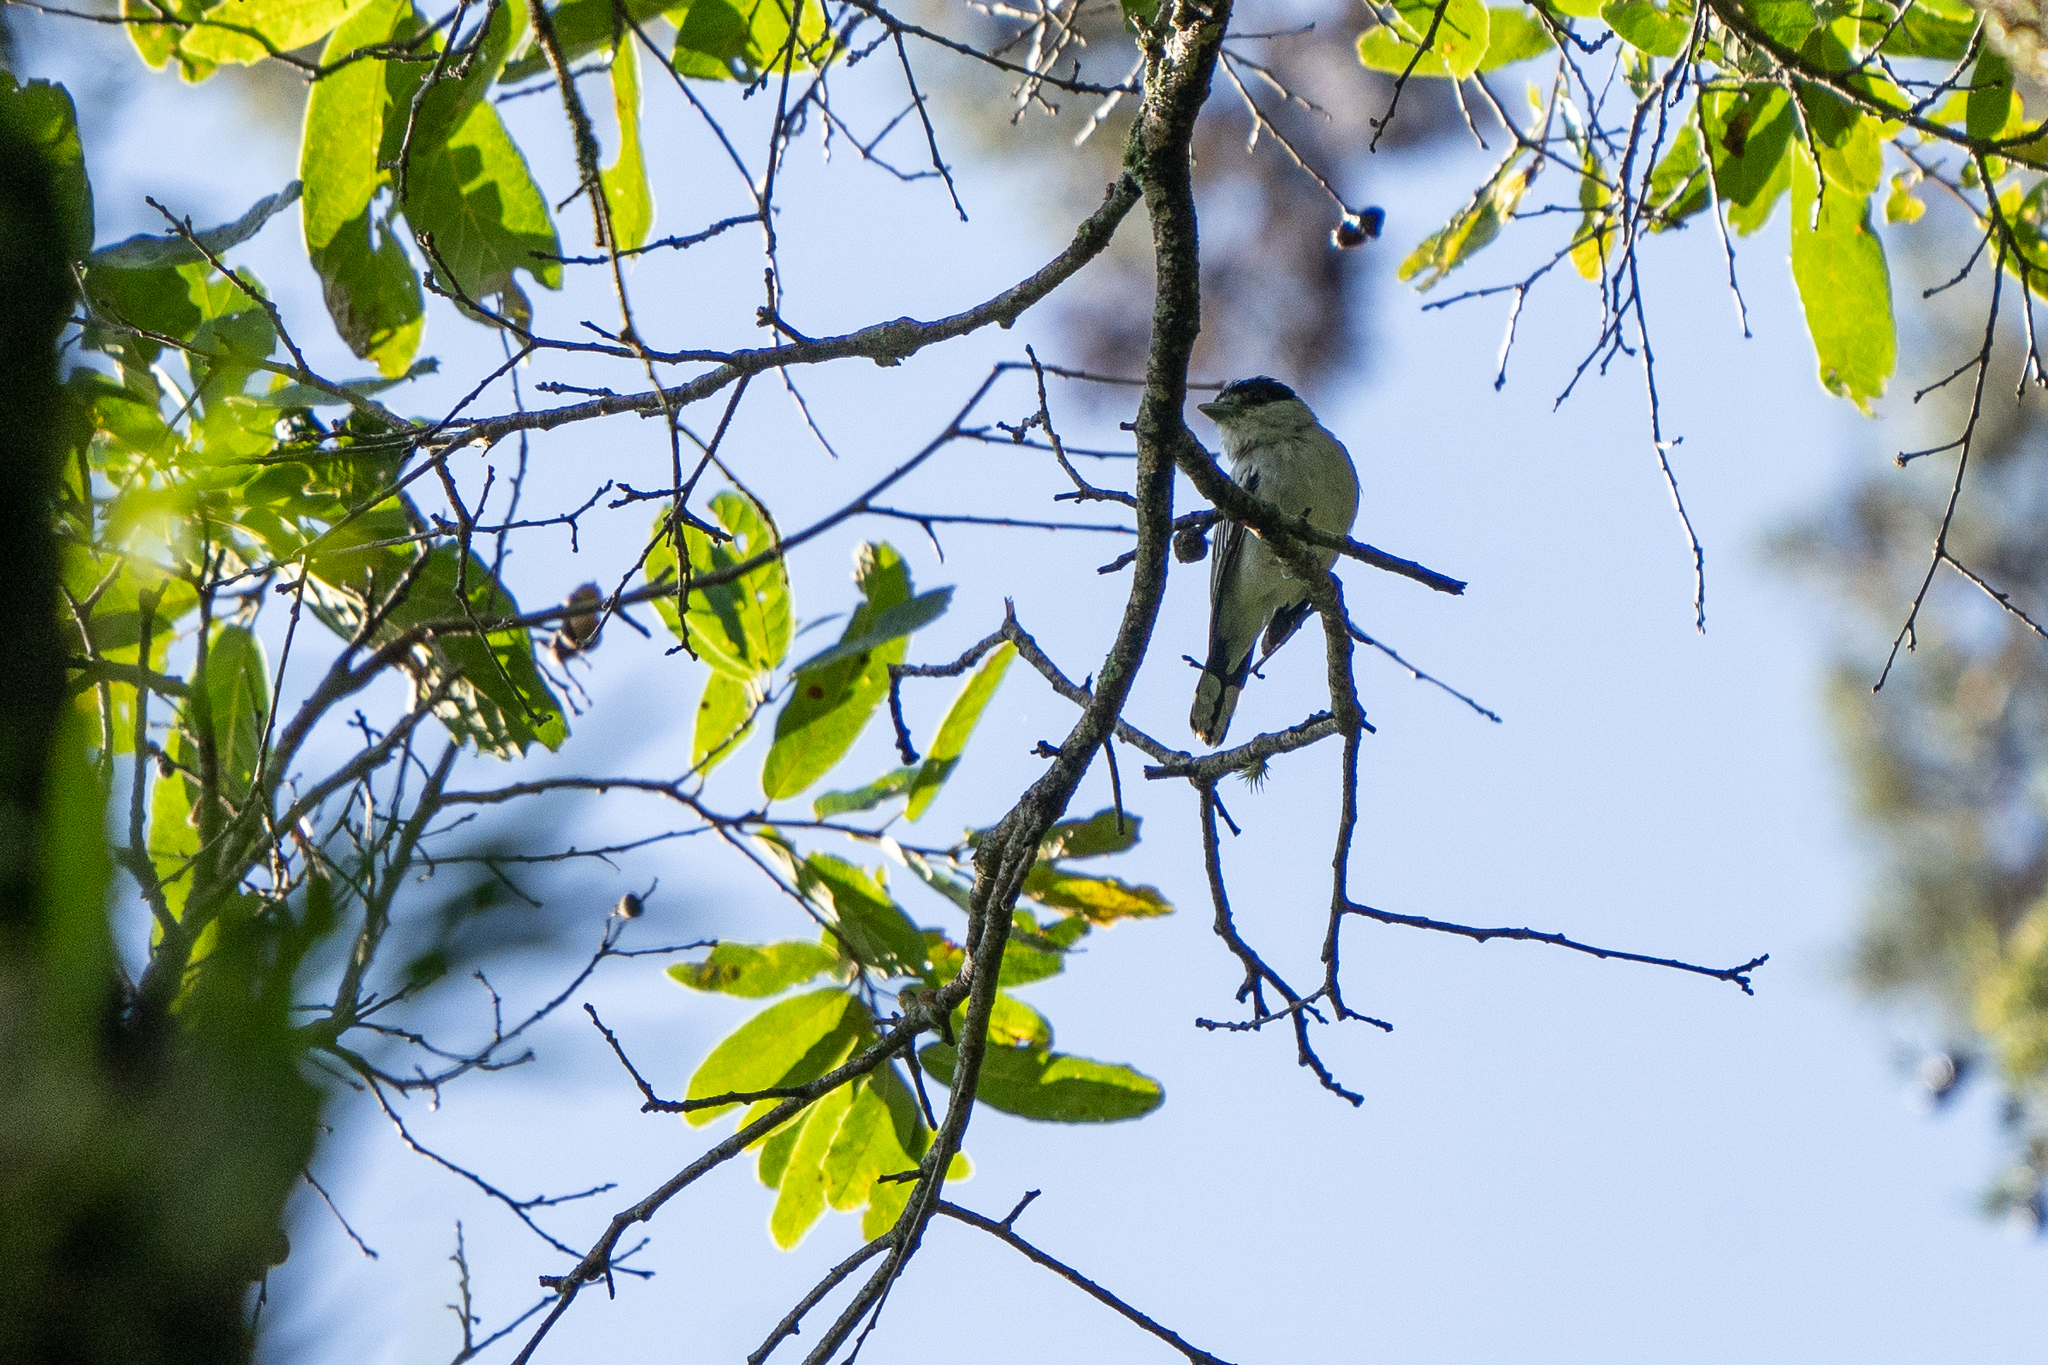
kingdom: Animalia
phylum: Chordata
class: Aves
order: Passeriformes
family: Cotingidae
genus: Pachyramphus
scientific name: Pachyramphus major
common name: Gray-collared becard
